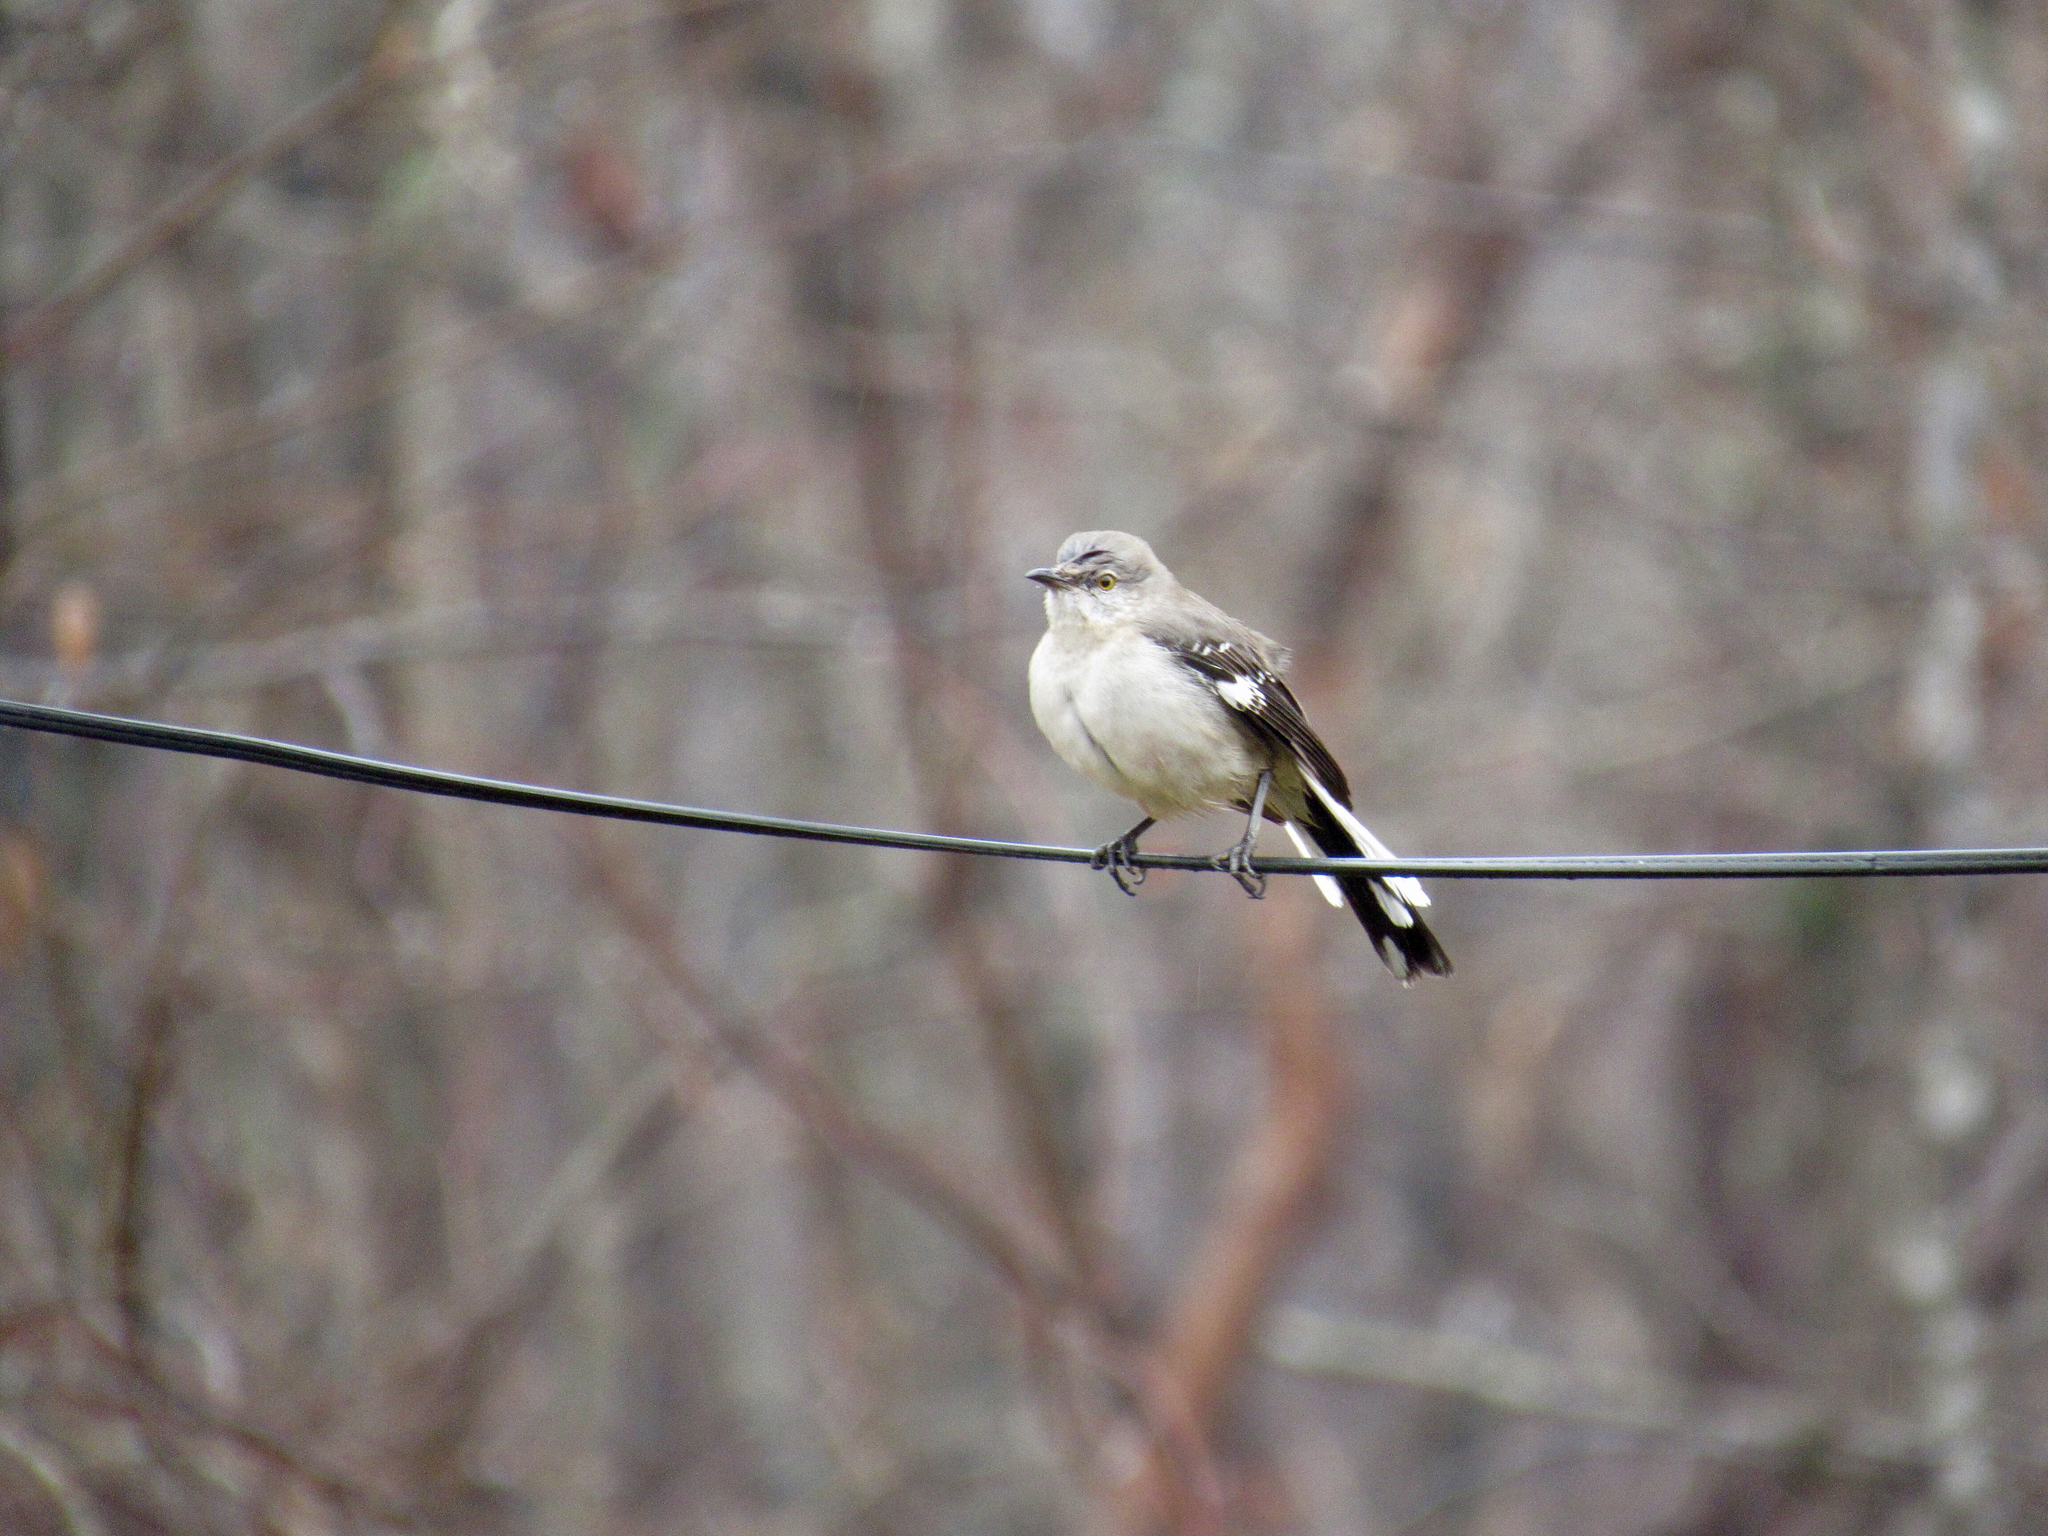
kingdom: Animalia
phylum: Chordata
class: Aves
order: Passeriformes
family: Mimidae
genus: Mimus
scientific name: Mimus polyglottos
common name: Northern mockingbird
